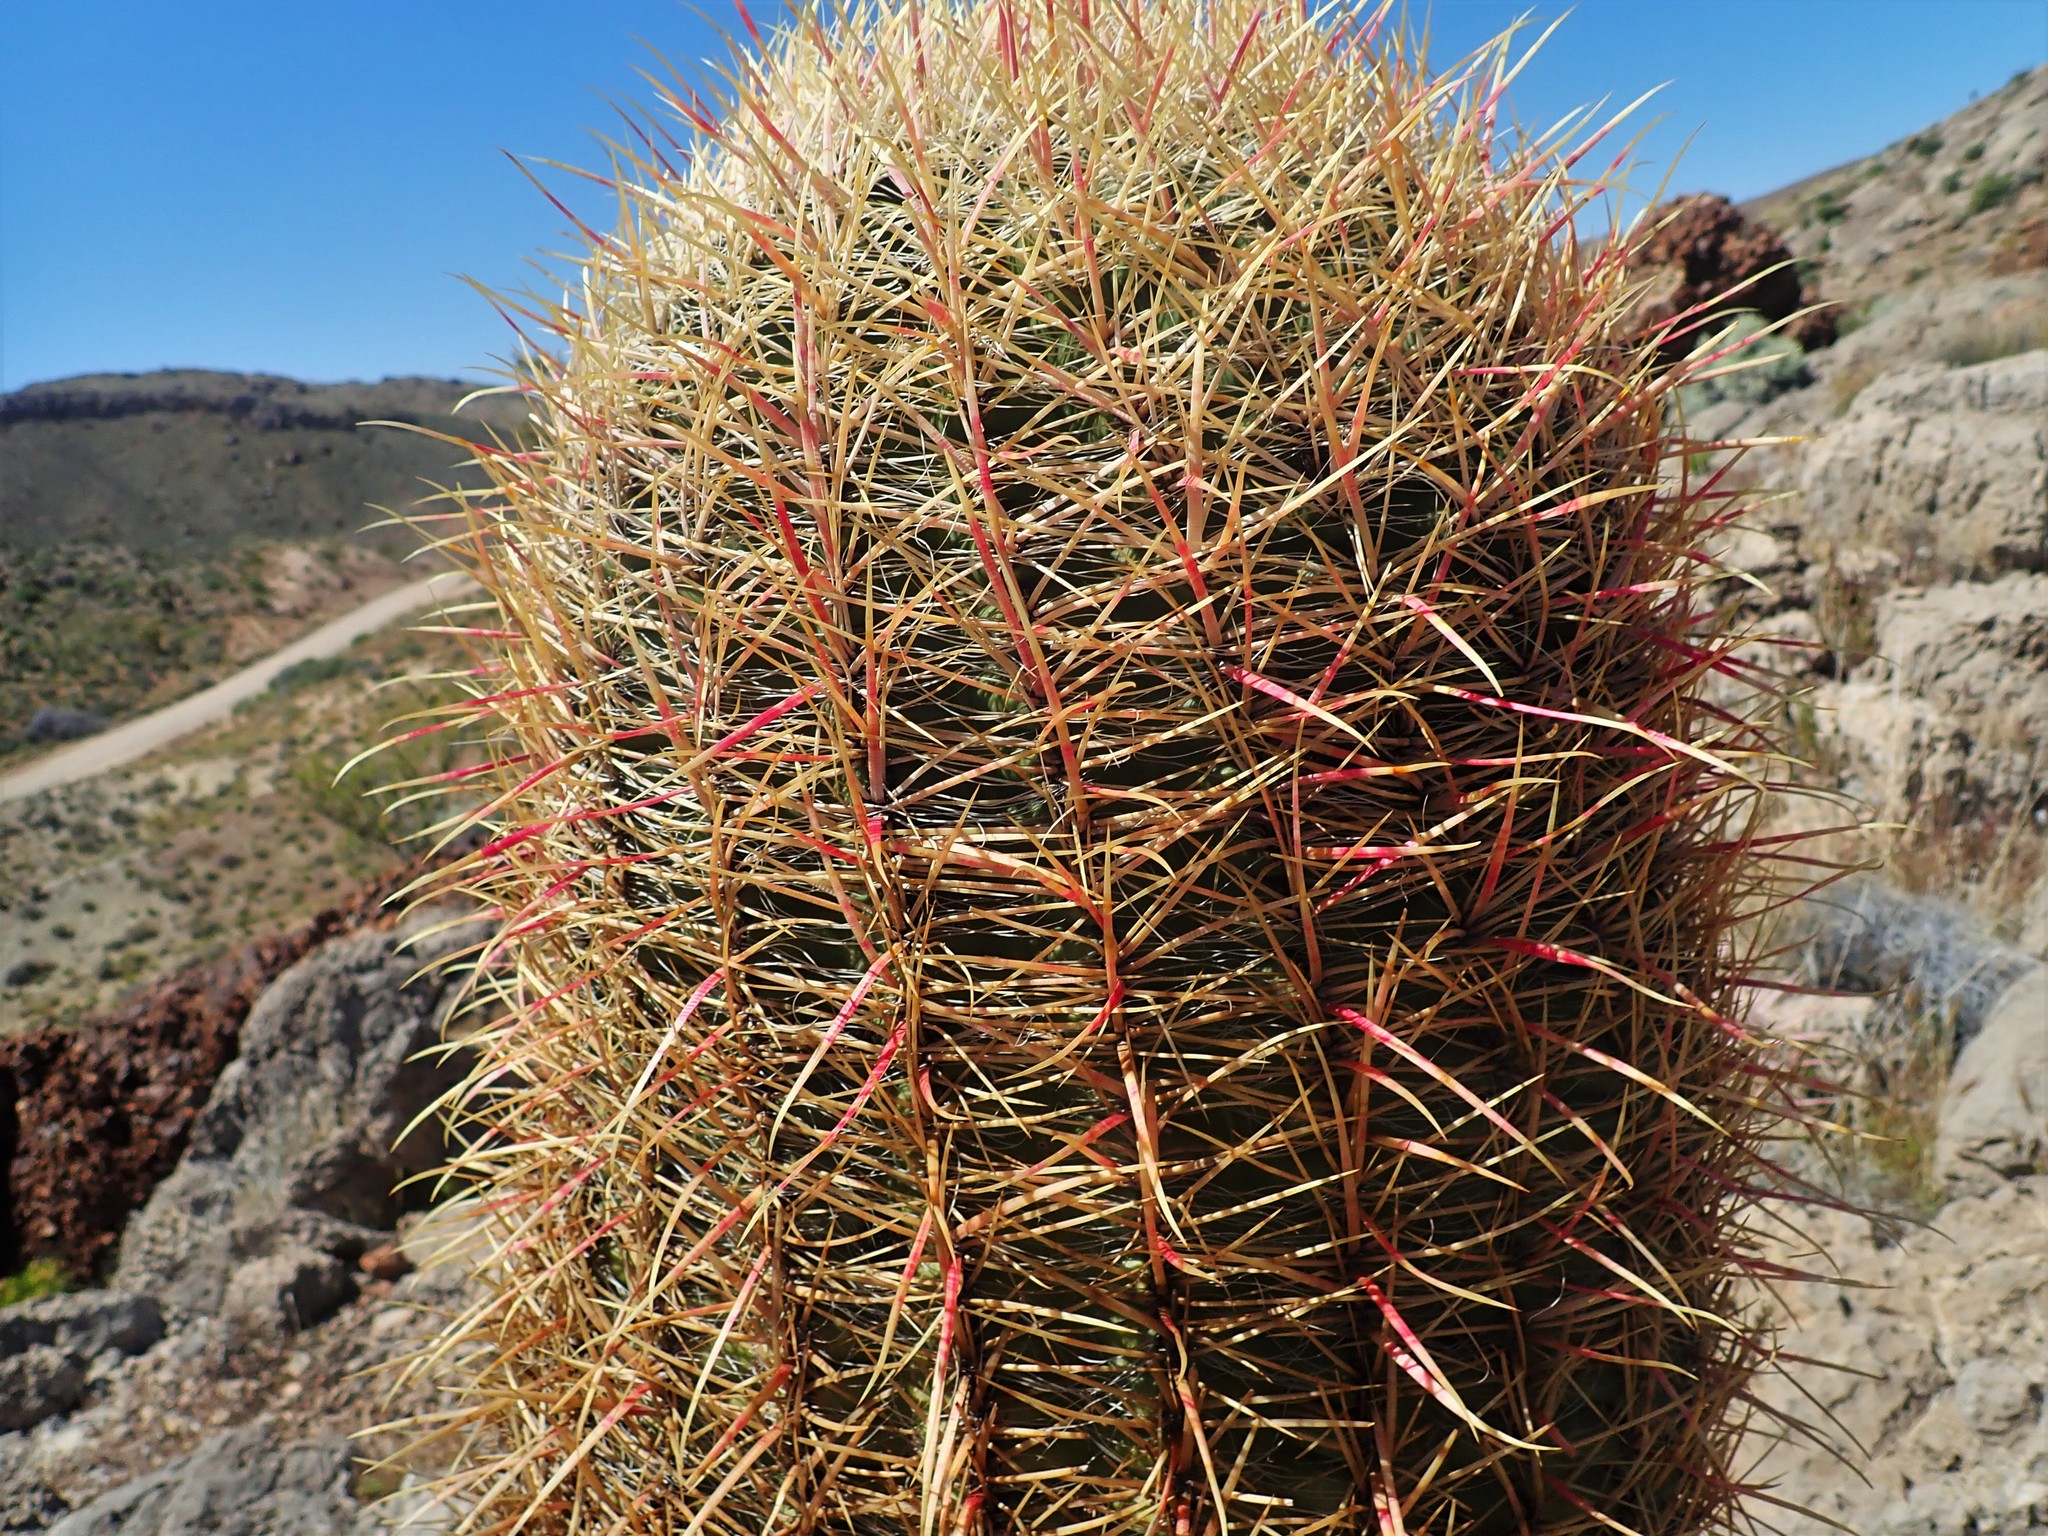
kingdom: Plantae
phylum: Tracheophyta
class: Magnoliopsida
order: Caryophyllales
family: Cactaceae
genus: Ferocactus
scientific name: Ferocactus cylindraceus
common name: California barrel cactus
